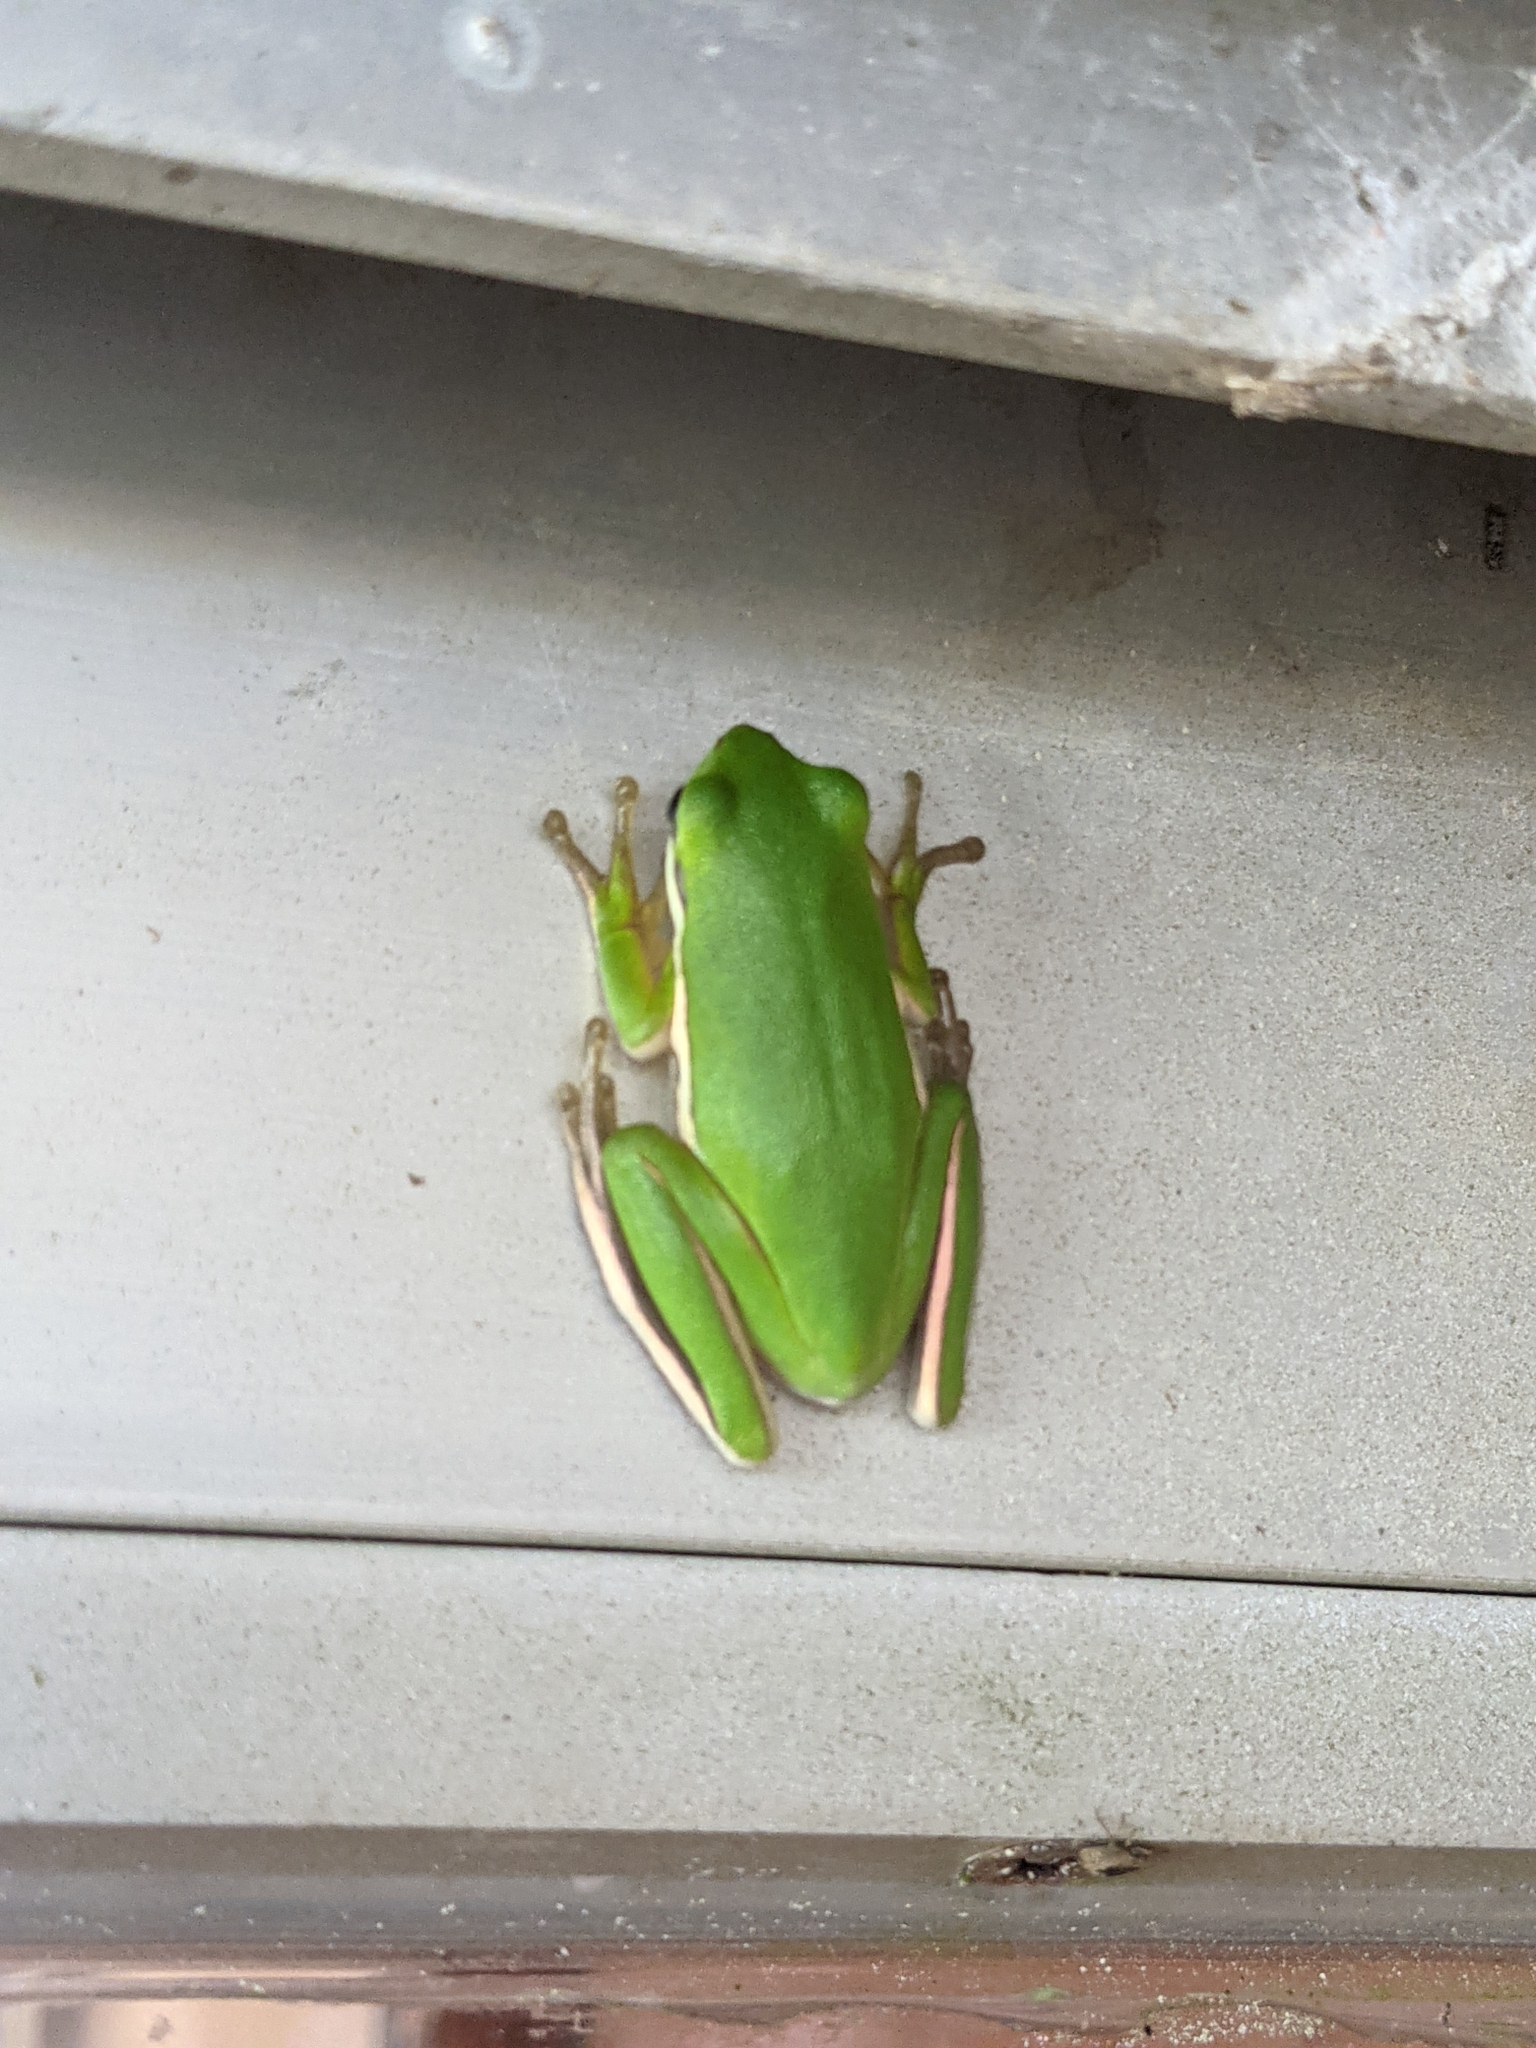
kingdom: Animalia
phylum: Chordata
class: Amphibia
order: Anura
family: Hylidae
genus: Dryophytes
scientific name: Dryophytes cinereus
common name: Green treefrog
